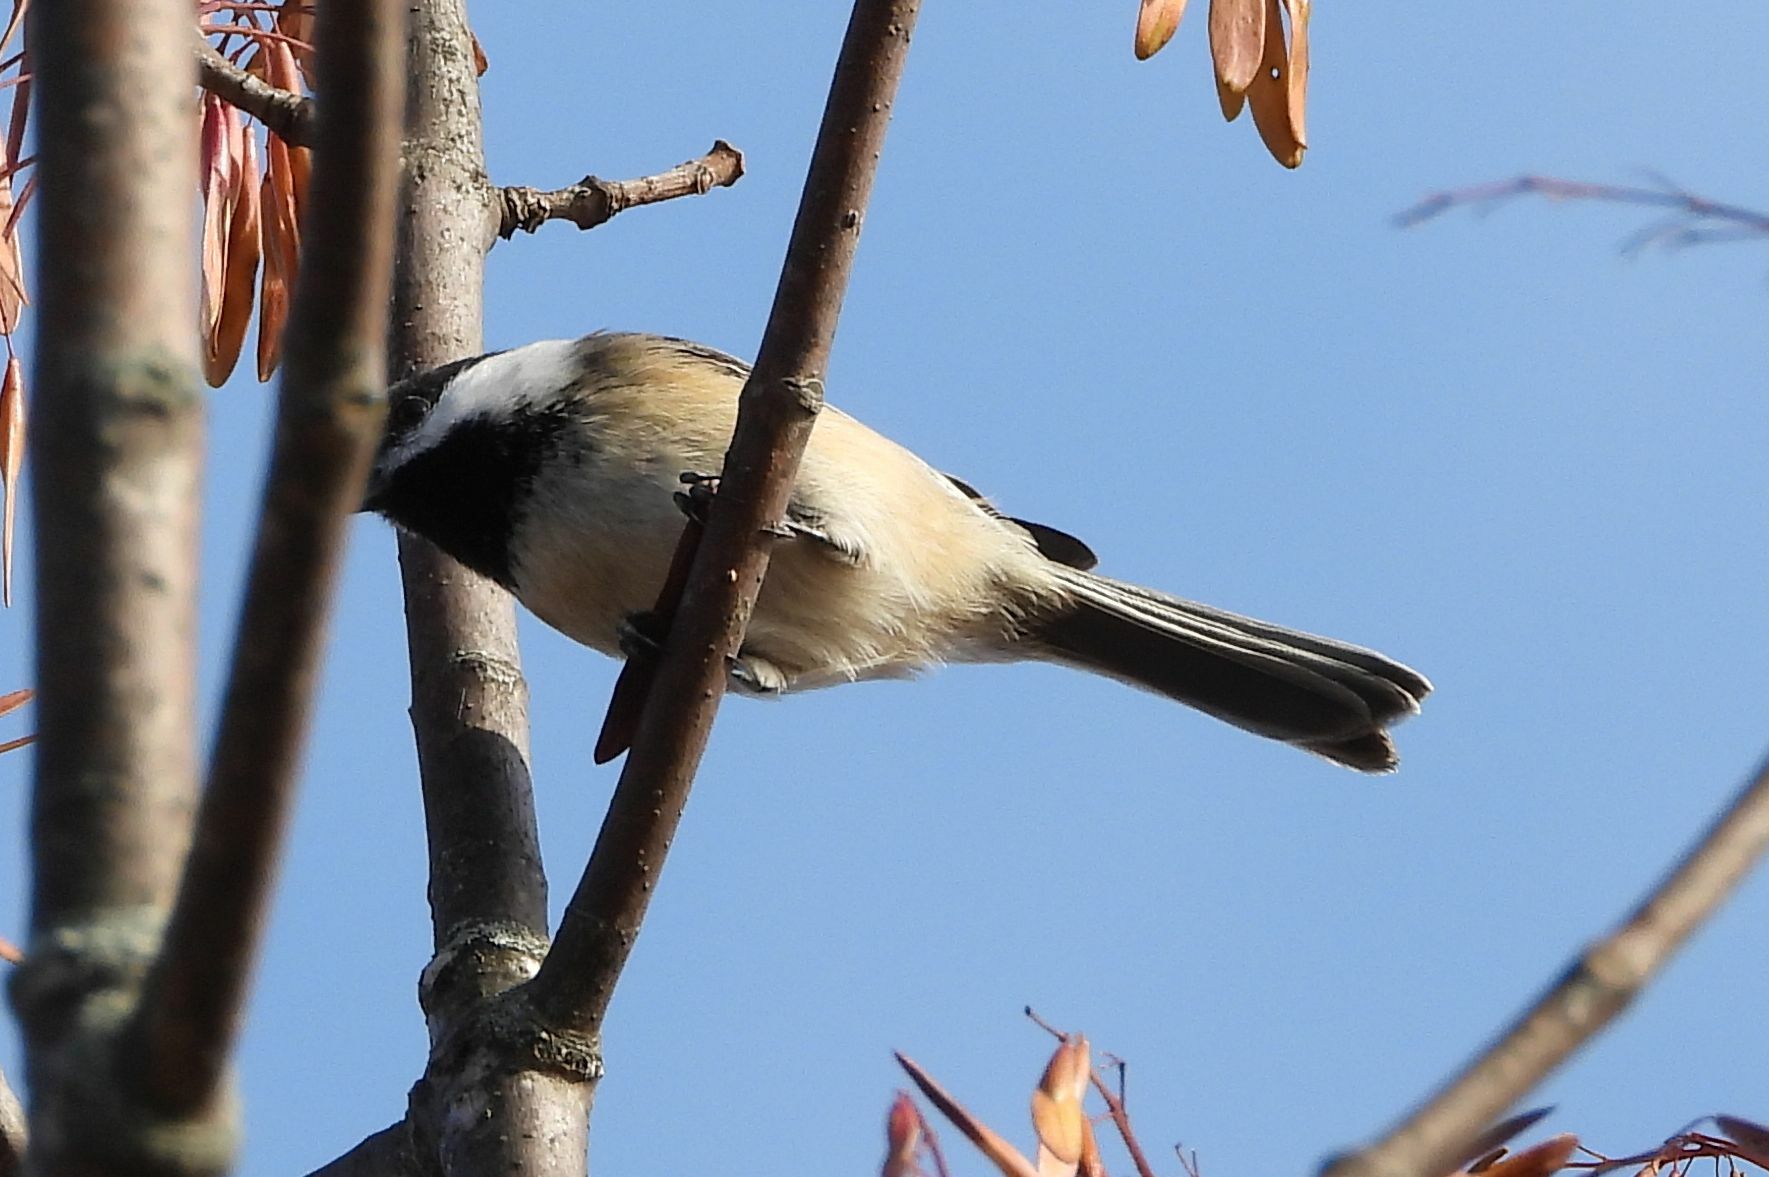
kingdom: Animalia
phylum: Chordata
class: Aves
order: Passeriformes
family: Paridae
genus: Poecile
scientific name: Poecile atricapillus
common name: Black-capped chickadee
